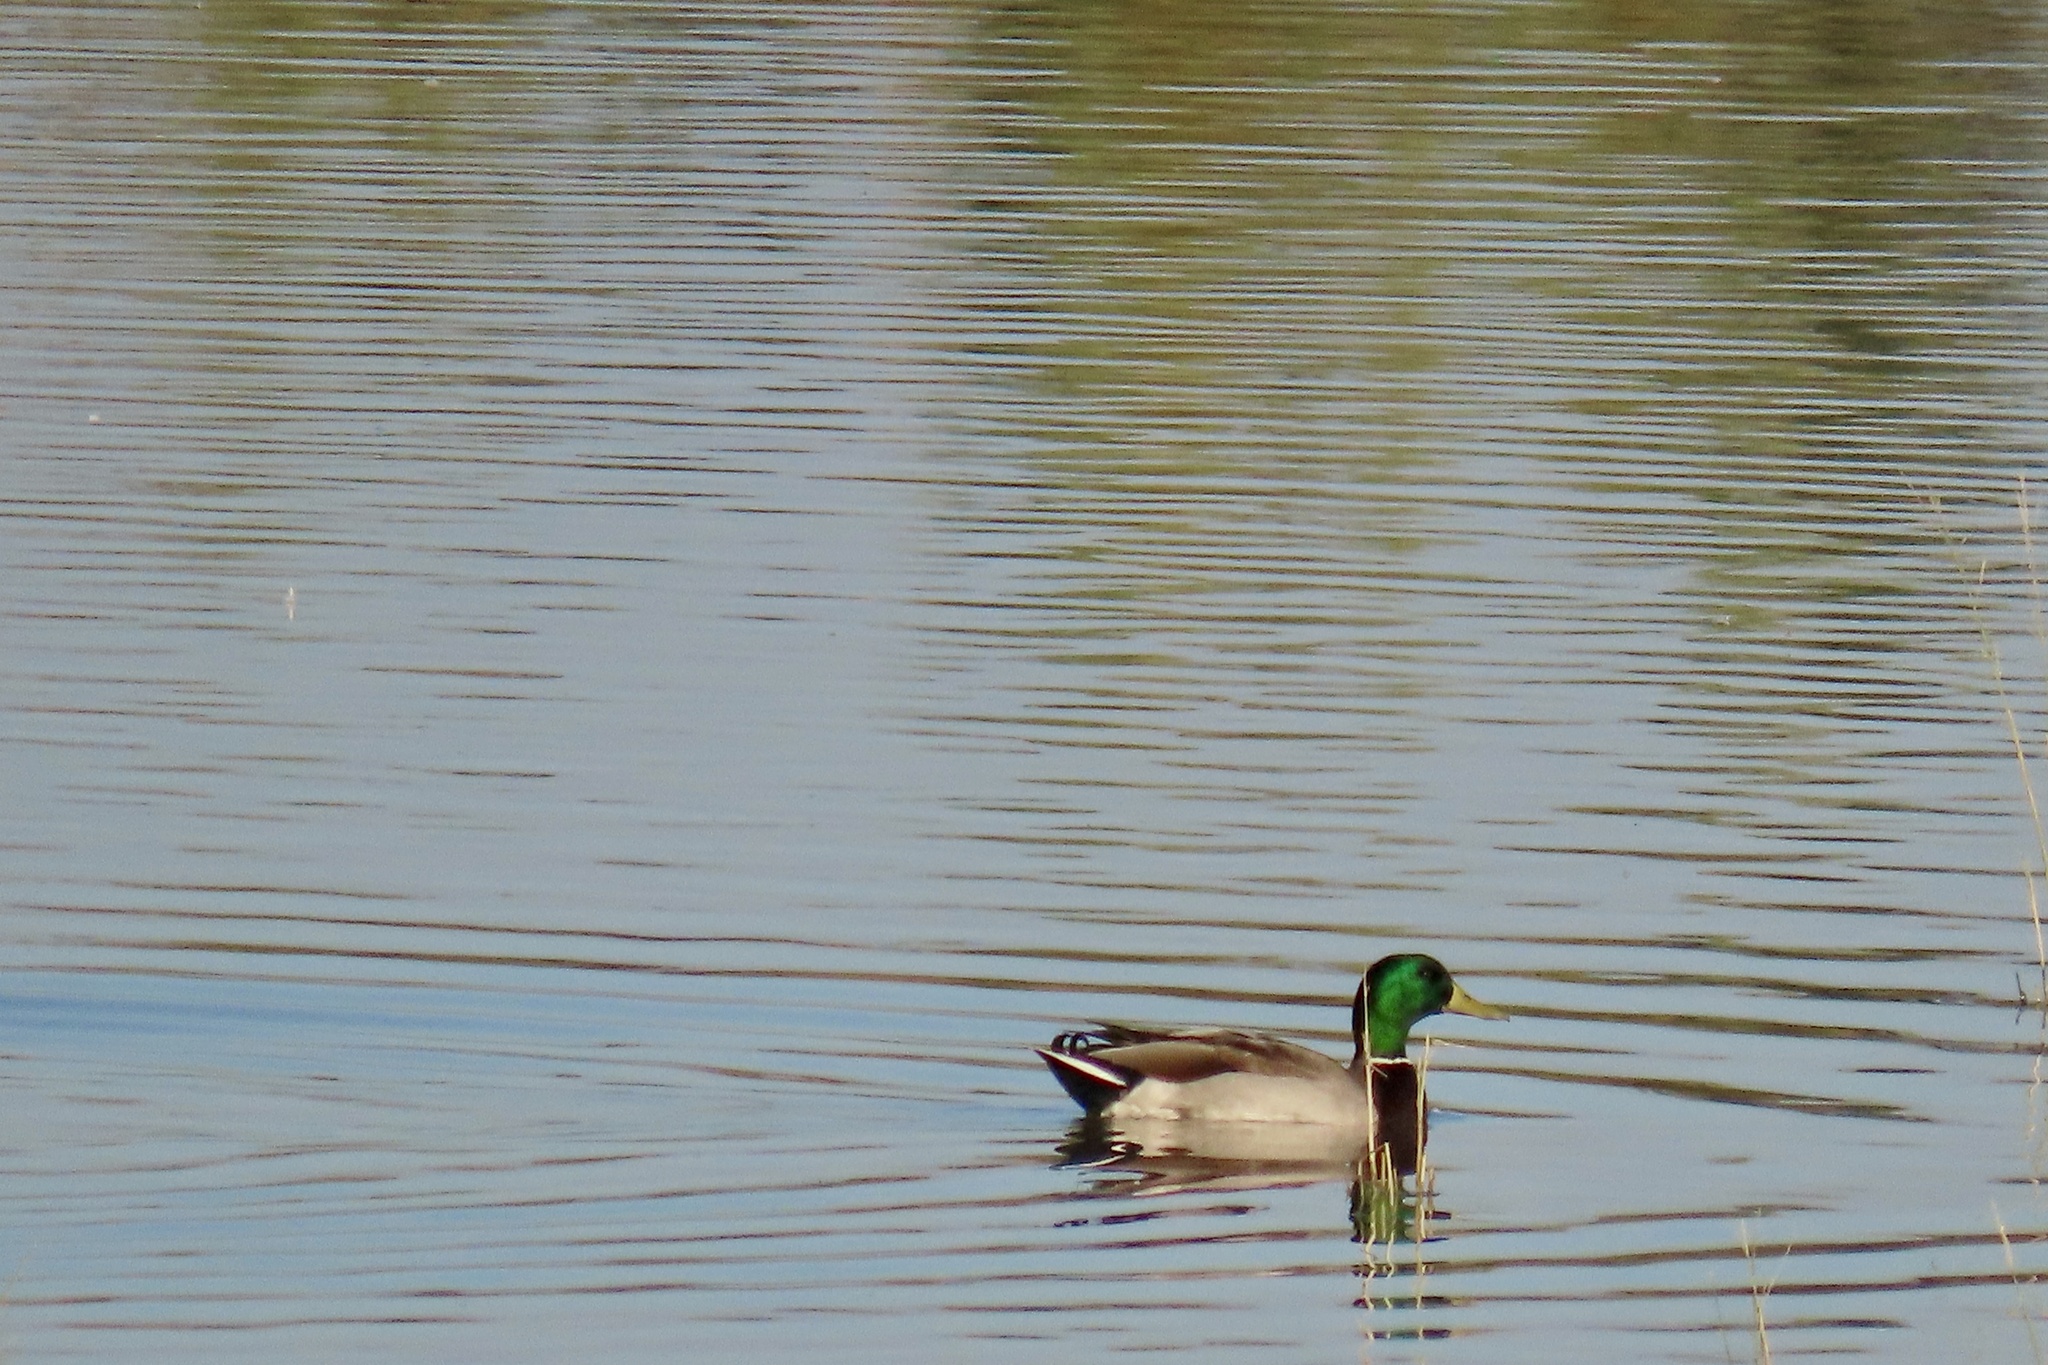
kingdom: Animalia
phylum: Chordata
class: Aves
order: Anseriformes
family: Anatidae
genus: Anas
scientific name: Anas platyrhynchos
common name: Mallard
